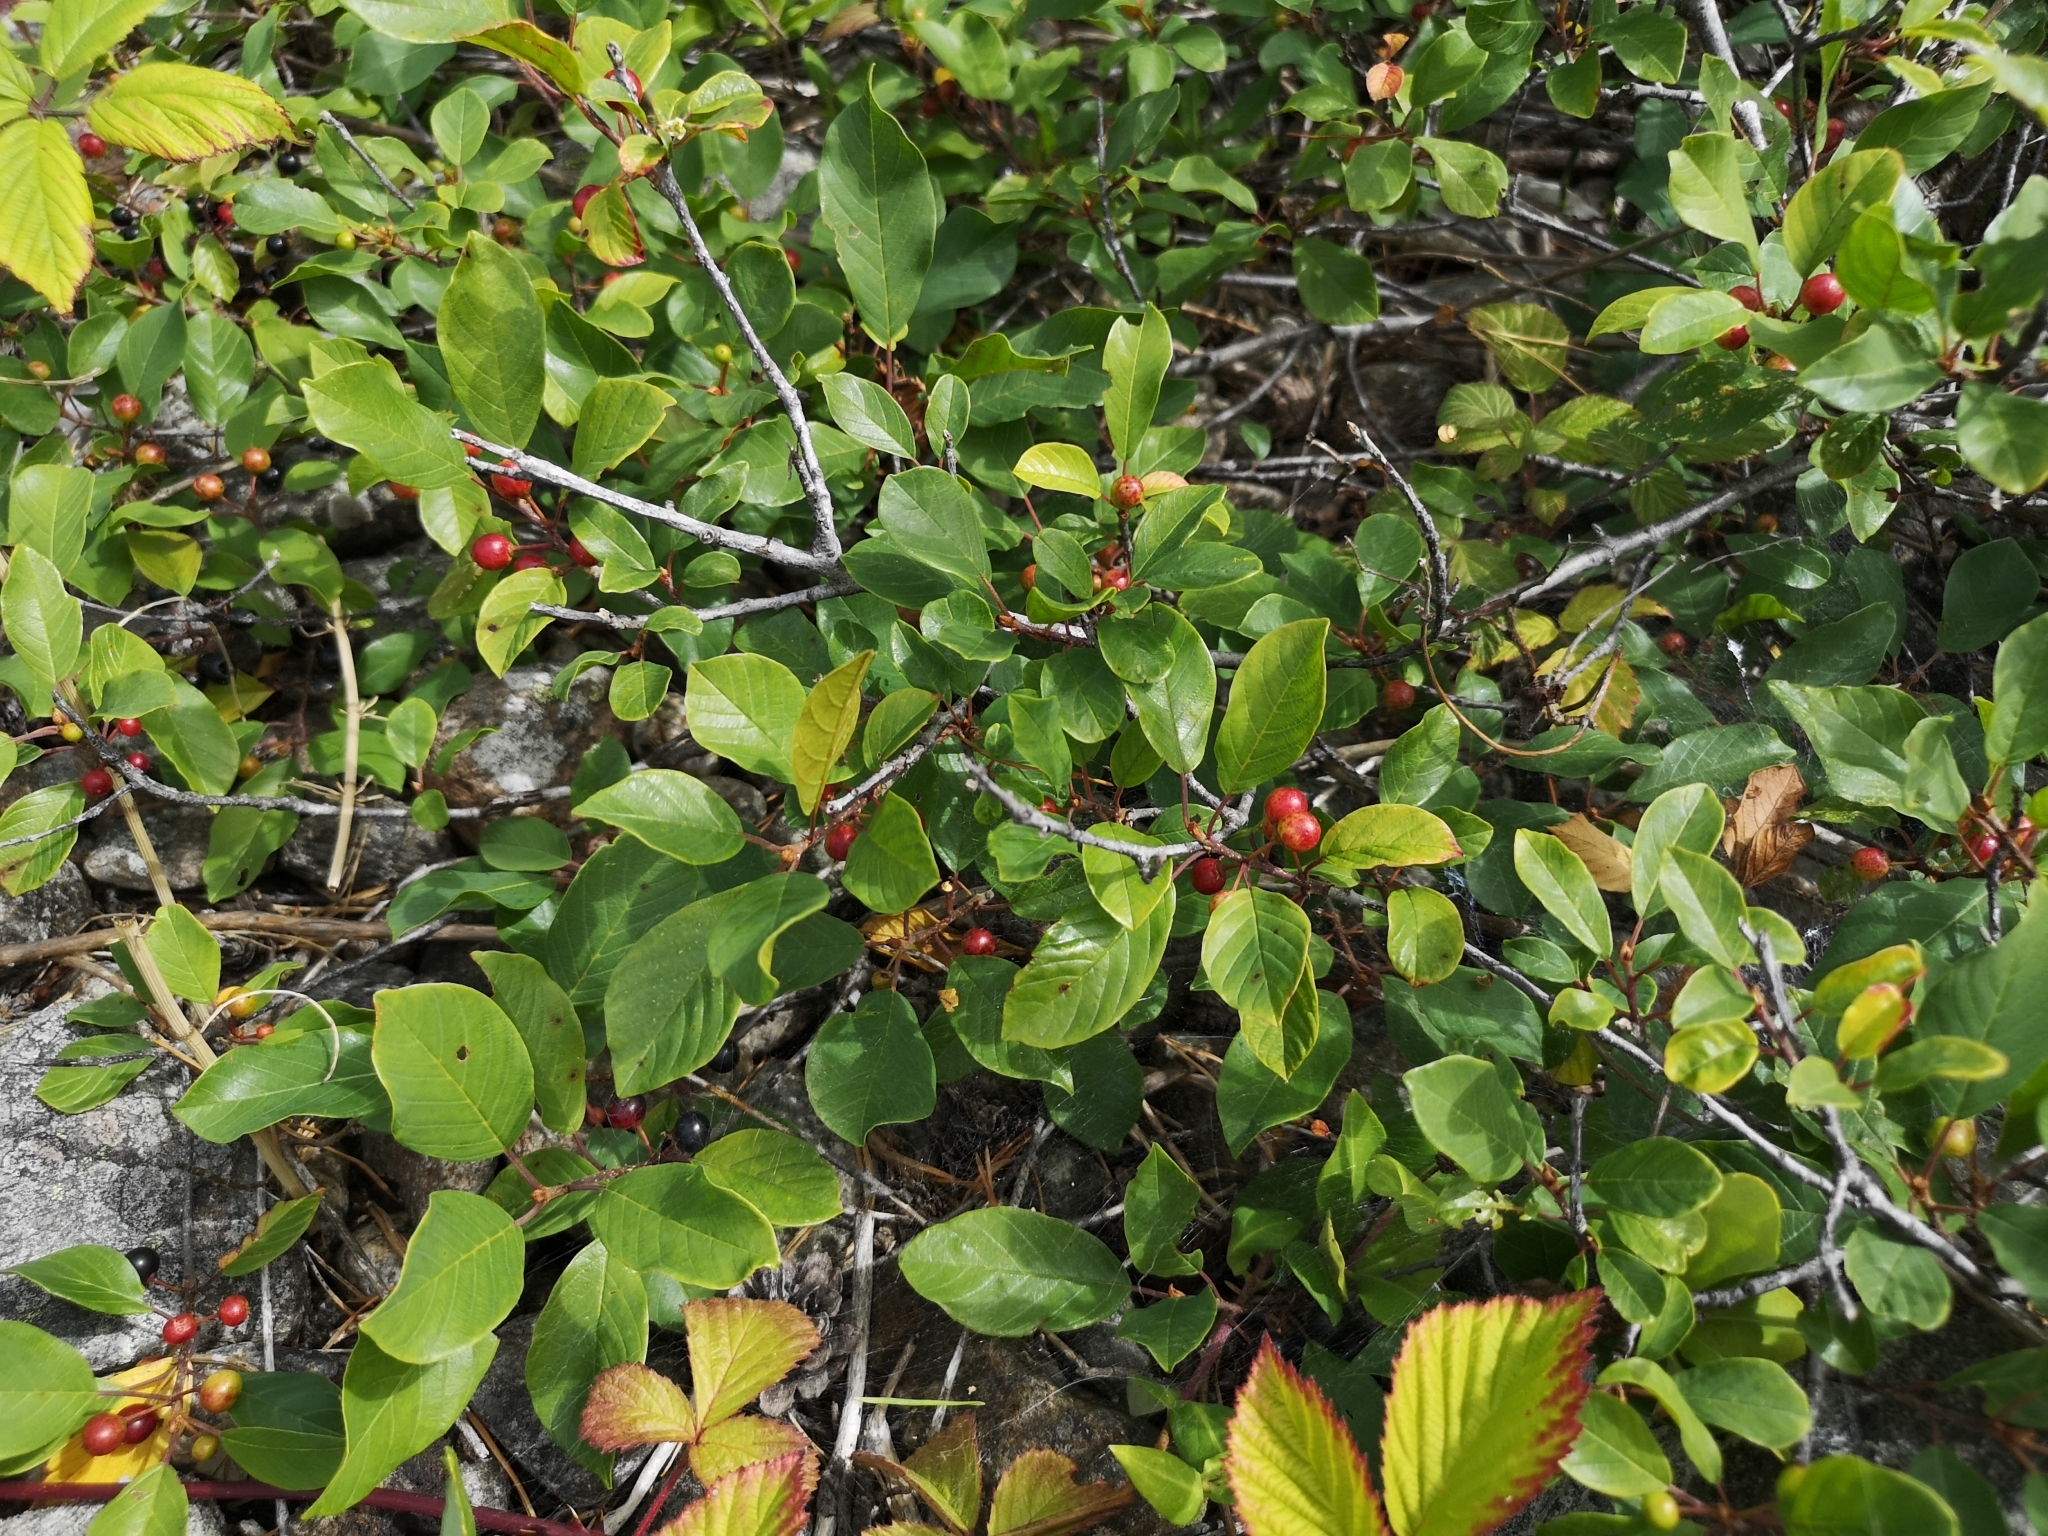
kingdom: Plantae
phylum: Tracheophyta
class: Magnoliopsida
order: Rosales
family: Rhamnaceae
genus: Frangula
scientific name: Frangula alnus
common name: Alder buckthorn
